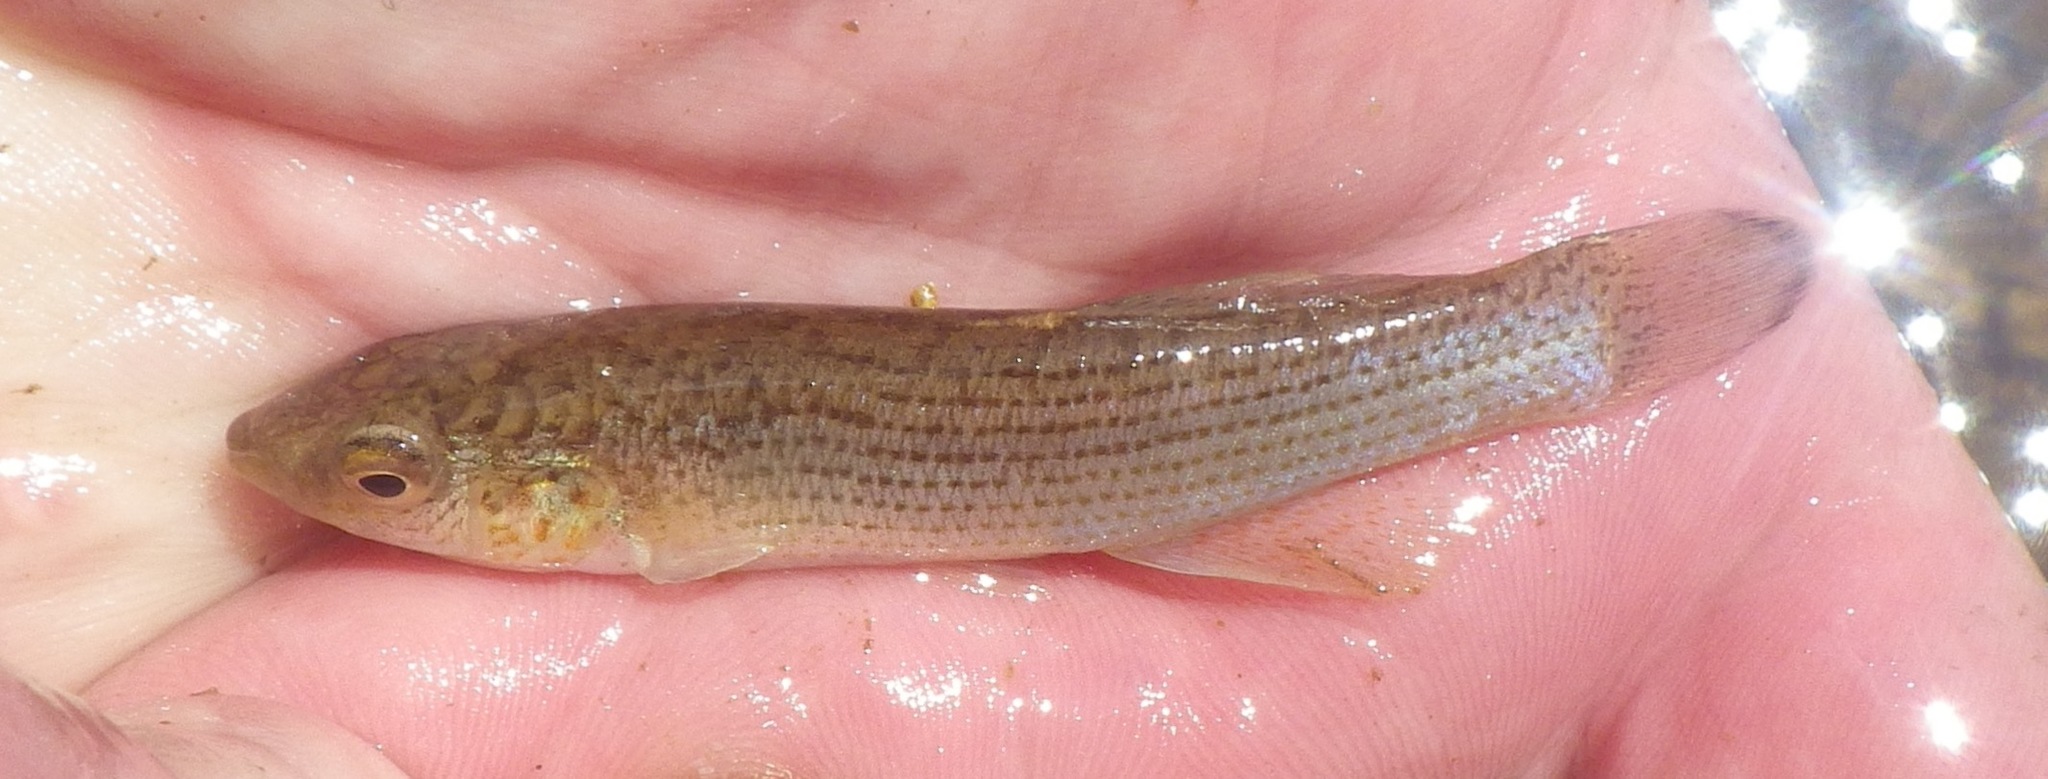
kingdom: Animalia
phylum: Chordata
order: Cyprinodontiformes
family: Fundulidae
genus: Fundulus
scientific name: Fundulus catenatus
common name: Northern studfish
